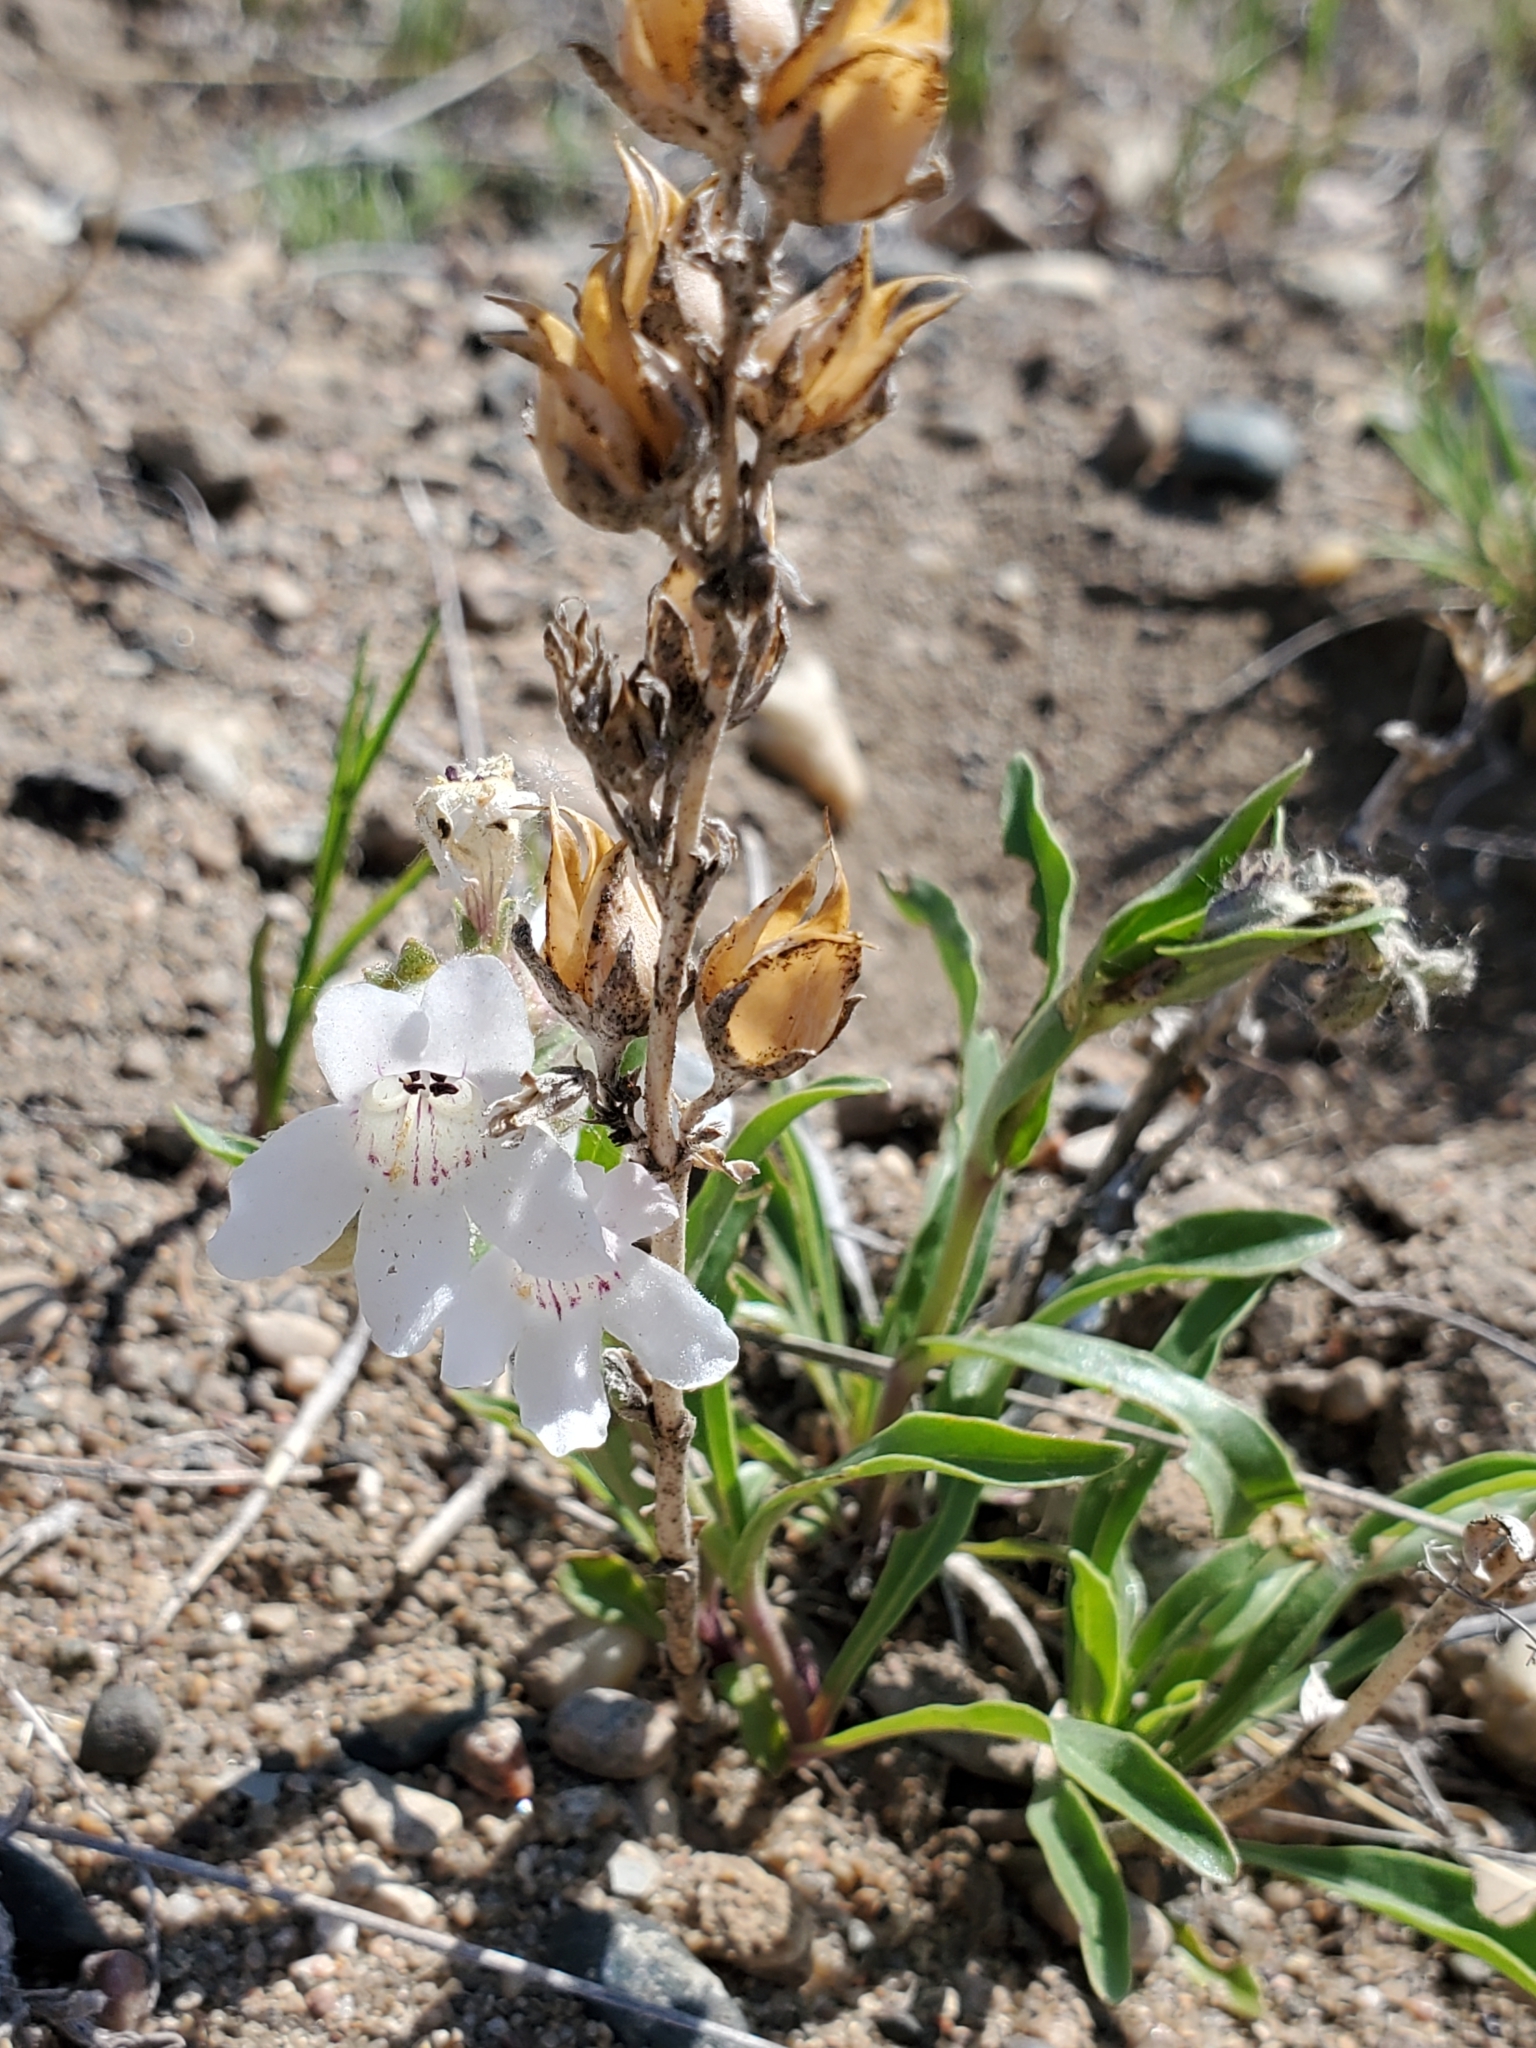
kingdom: Plantae
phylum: Tracheophyta
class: Magnoliopsida
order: Lamiales
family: Plantaginaceae
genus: Penstemon
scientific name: Penstemon albidus
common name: White beardtongue
